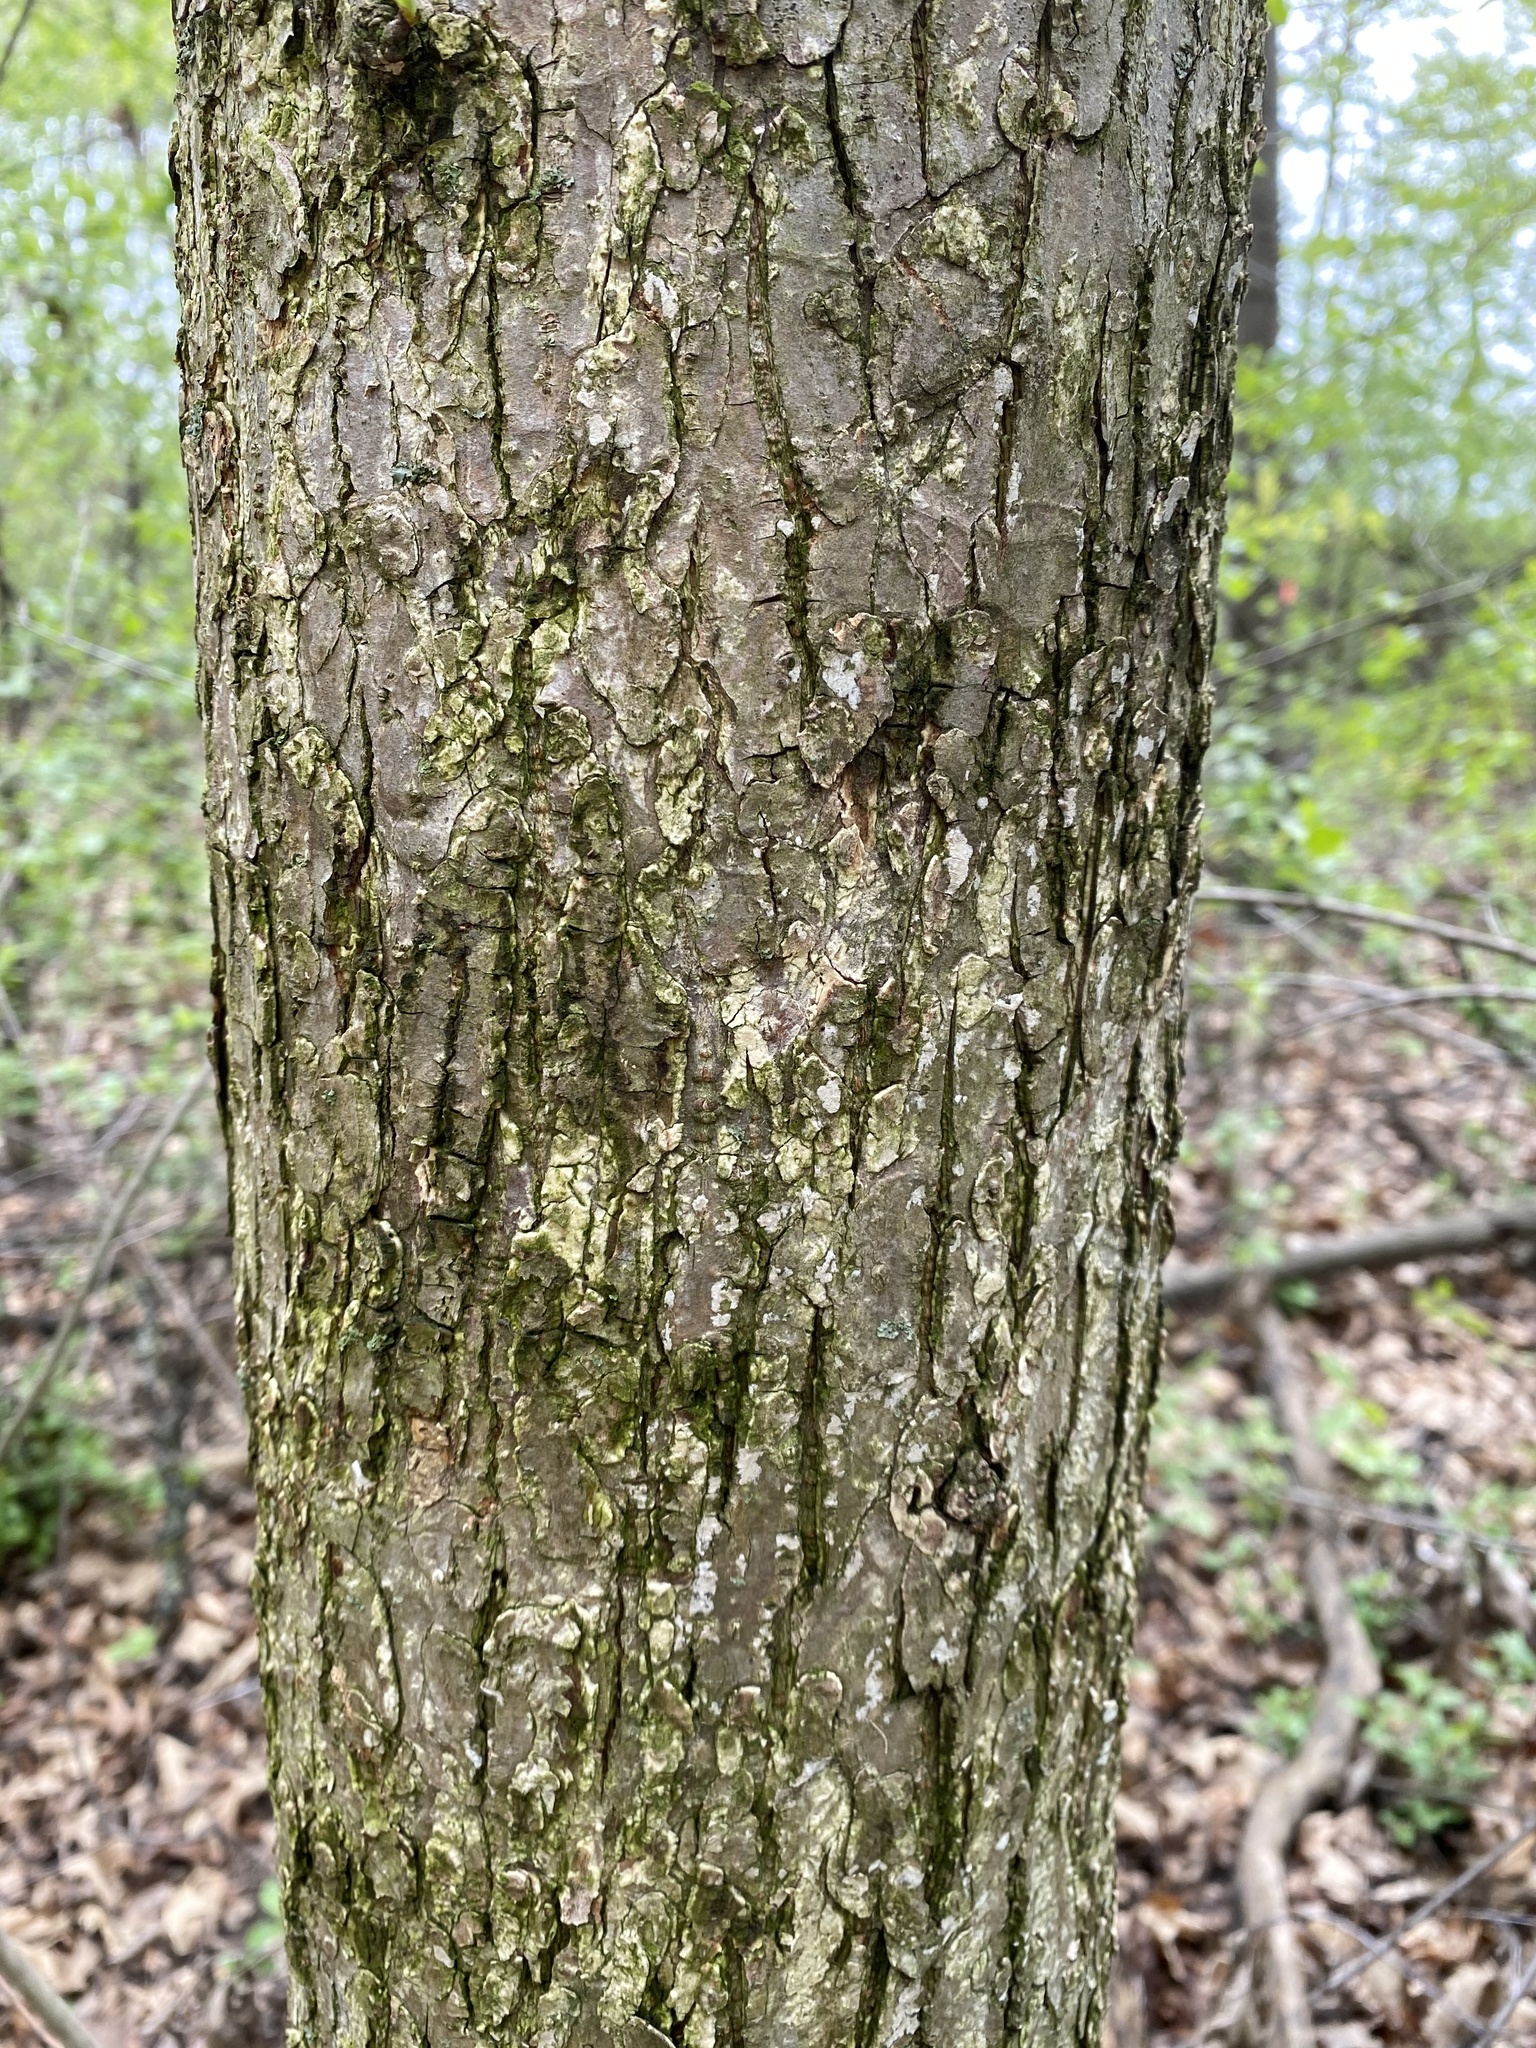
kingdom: Plantae
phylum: Tracheophyta
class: Magnoliopsida
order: Rosales
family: Ulmaceae
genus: Ulmus
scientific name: Ulmus rubra
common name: Slippery elm
